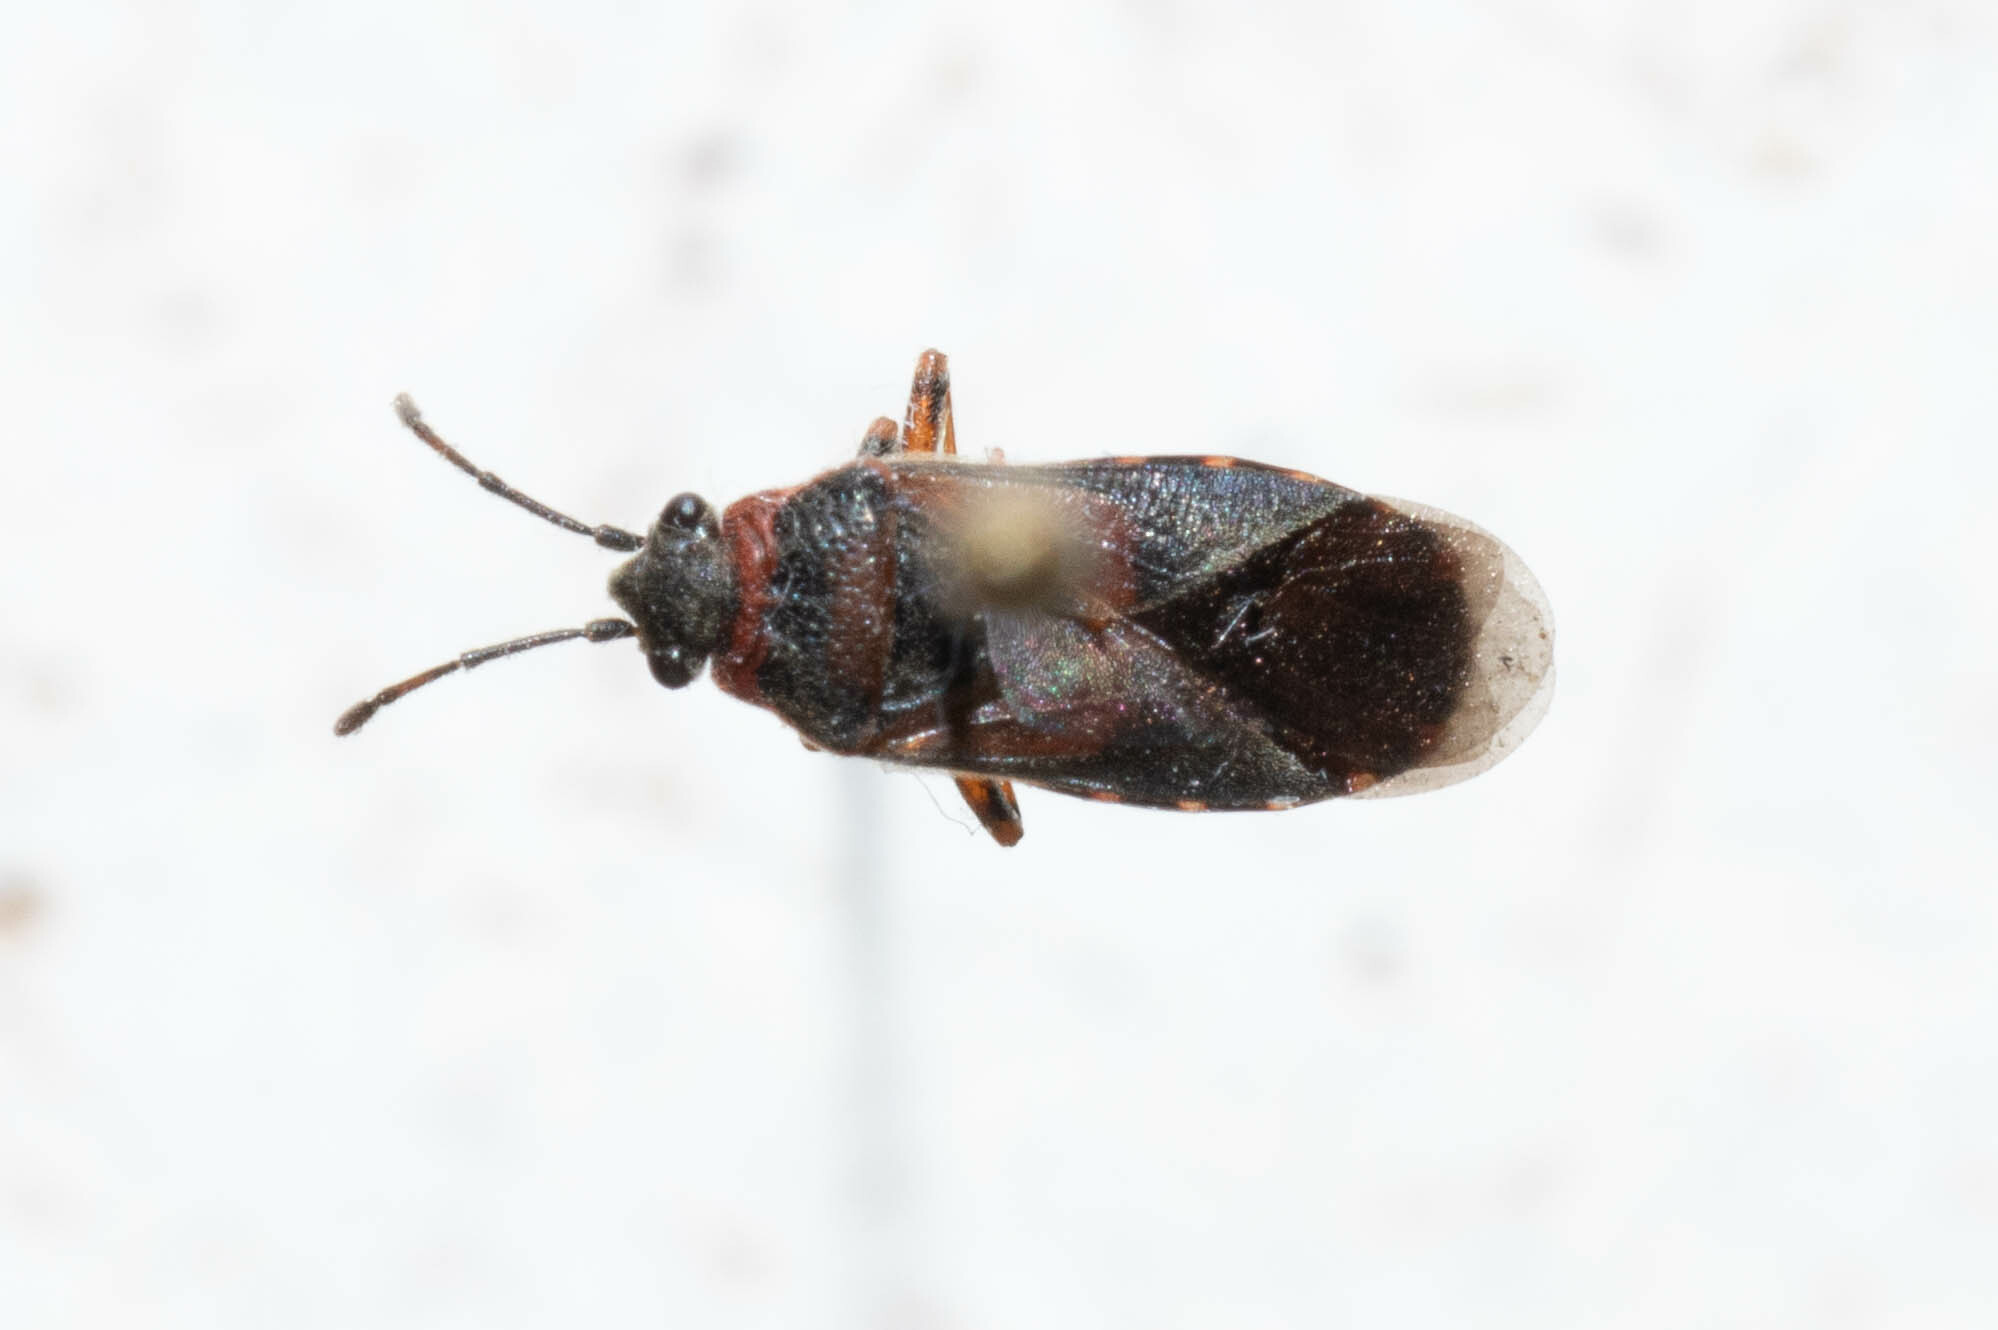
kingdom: Animalia
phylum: Arthropoda
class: Insecta
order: Hemiptera
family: Lygaeidae
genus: Arocatus
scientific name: Arocatus melanocephalus
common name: Lygaeid bug
